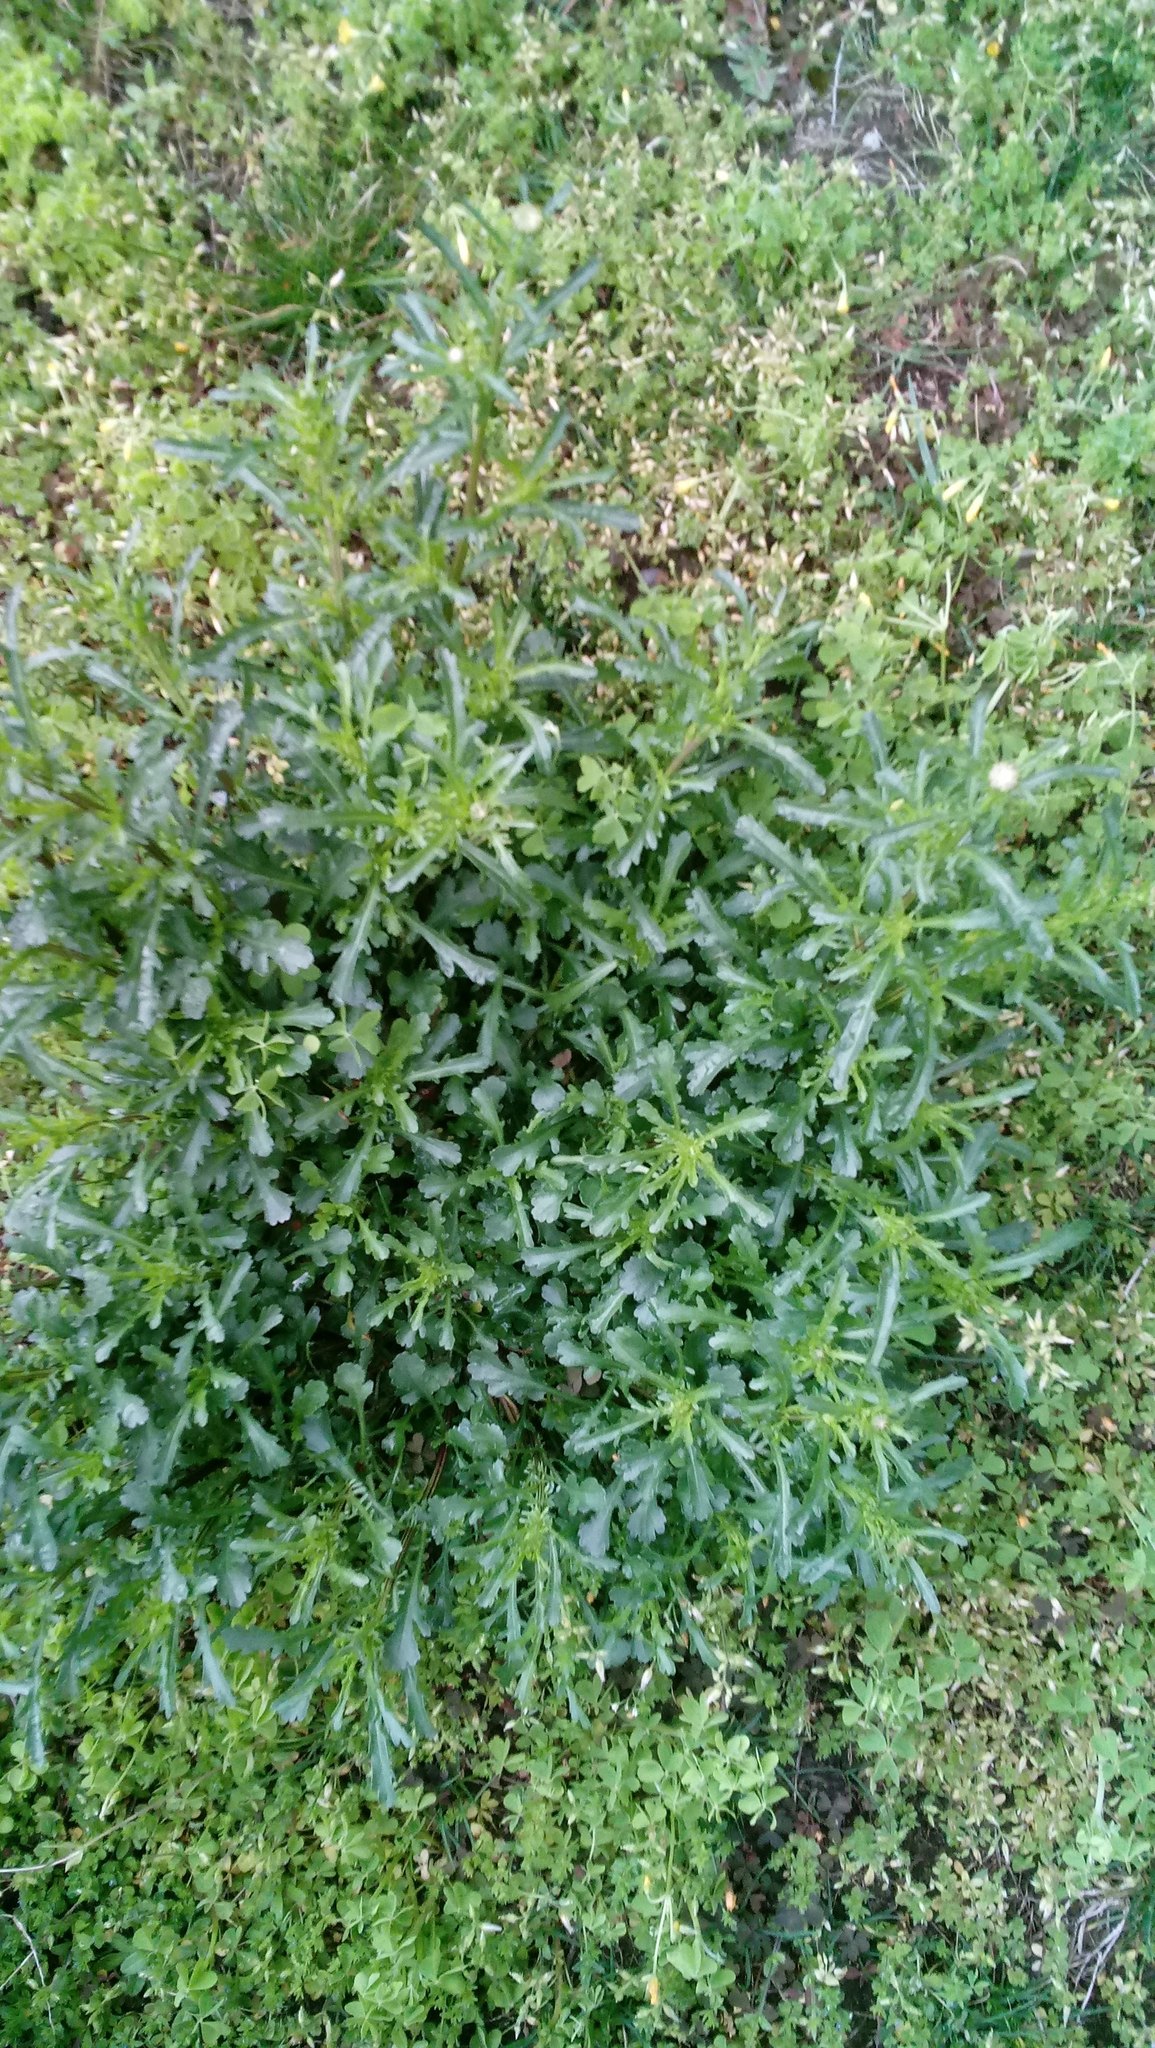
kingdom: Plantae
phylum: Tracheophyta
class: Magnoliopsida
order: Asterales
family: Asteraceae
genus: Leucanthemum
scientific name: Leucanthemum vulgare
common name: Oxeye daisy
